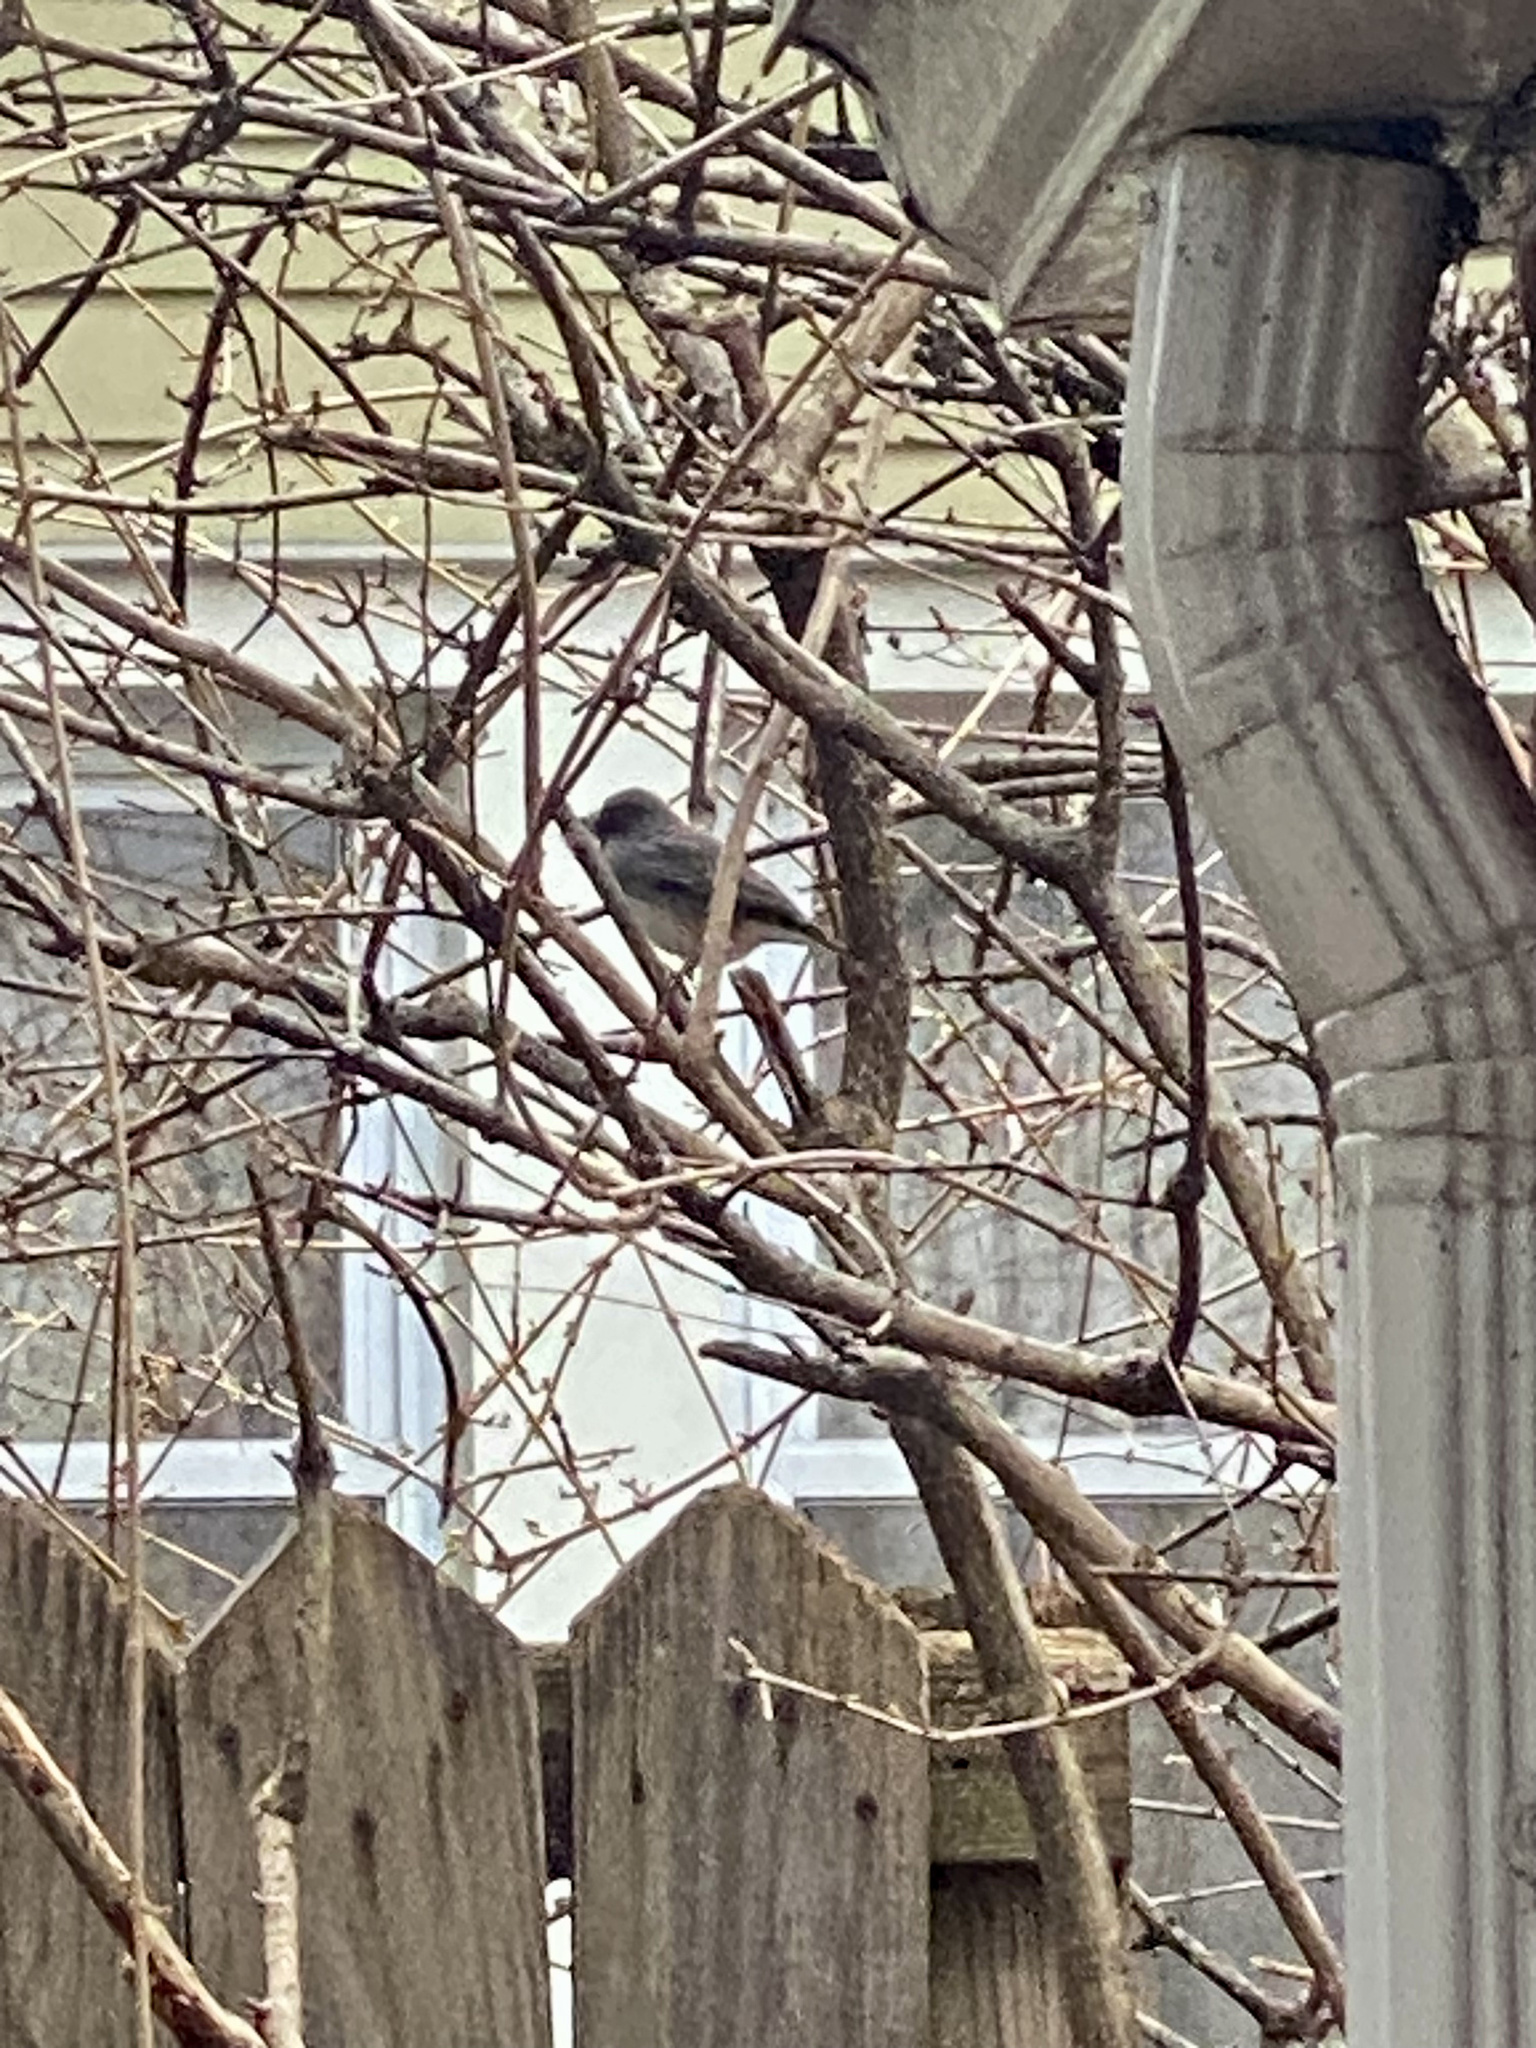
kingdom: Animalia
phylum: Chordata
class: Aves
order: Passeriformes
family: Passerellidae
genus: Junco
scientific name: Junco hyemalis
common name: Dark-eyed junco
